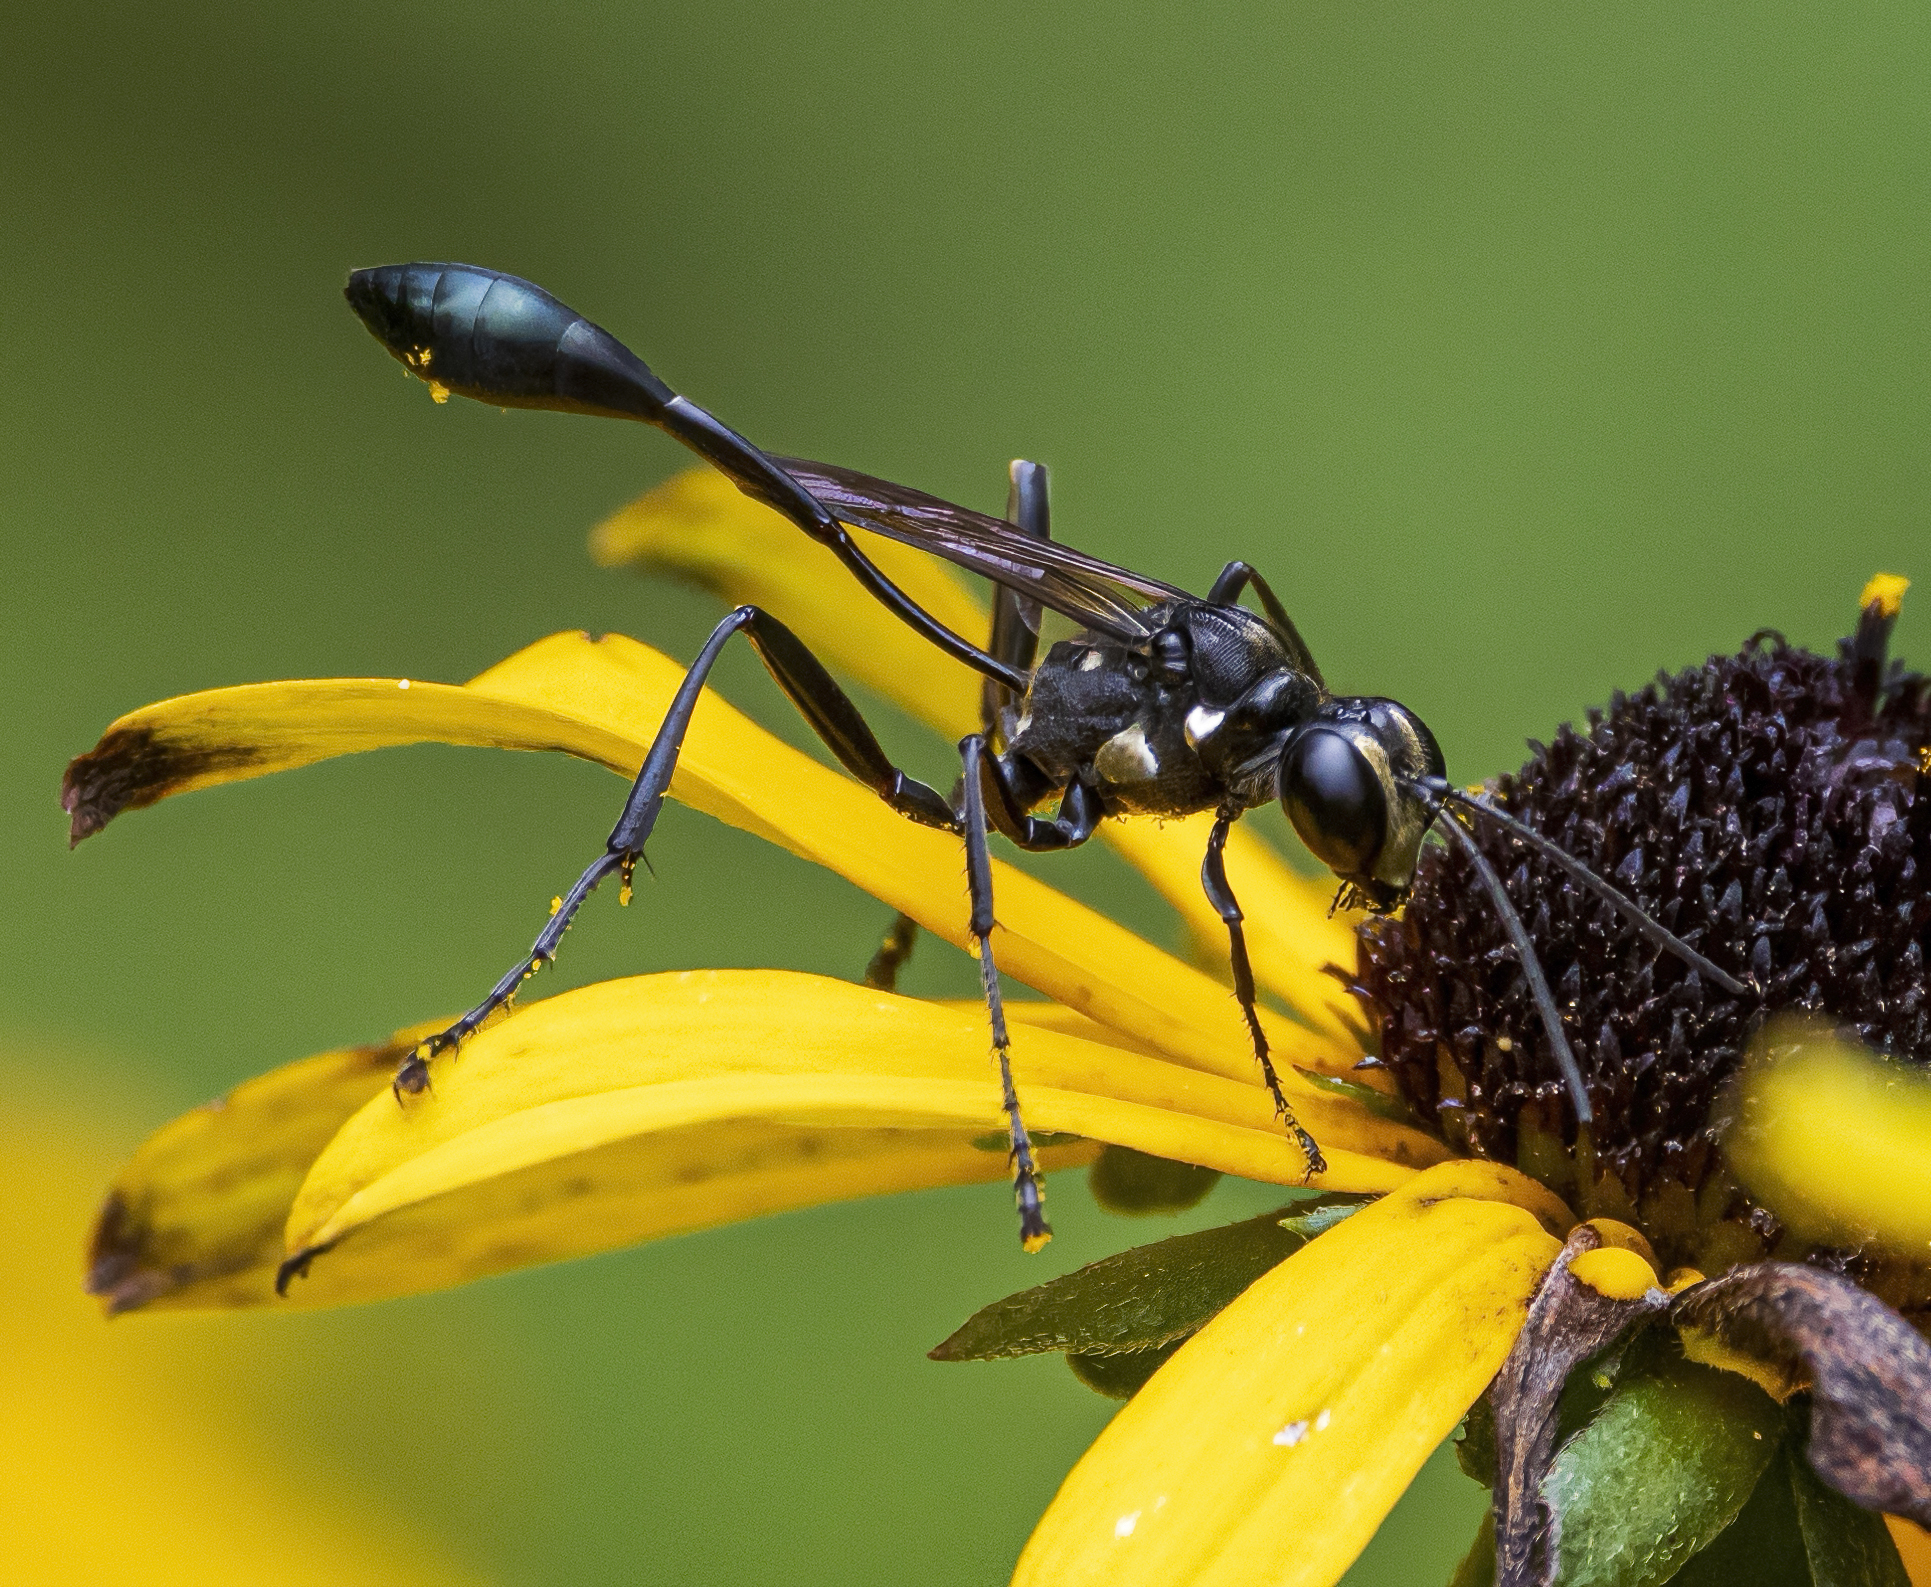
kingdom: Animalia
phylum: Arthropoda
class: Insecta
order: Hymenoptera
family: Sphecidae
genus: Eremnophila
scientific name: Eremnophila aureonotata
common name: Gold-marked thread-waisted wasp
